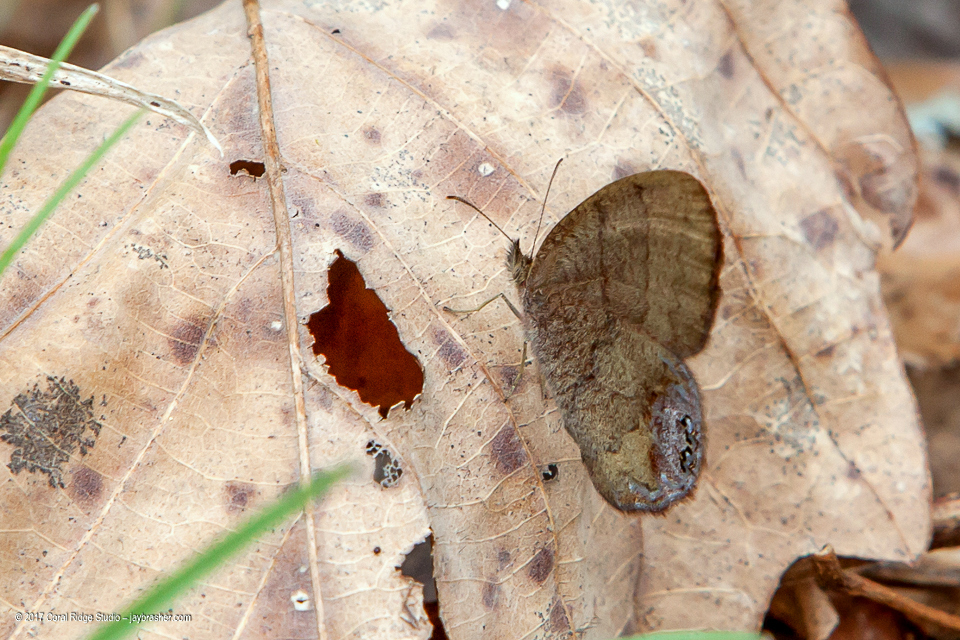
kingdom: Animalia
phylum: Arthropoda
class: Insecta
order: Lepidoptera
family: Nymphalidae
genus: Euptychia
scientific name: Euptychia cornelius
